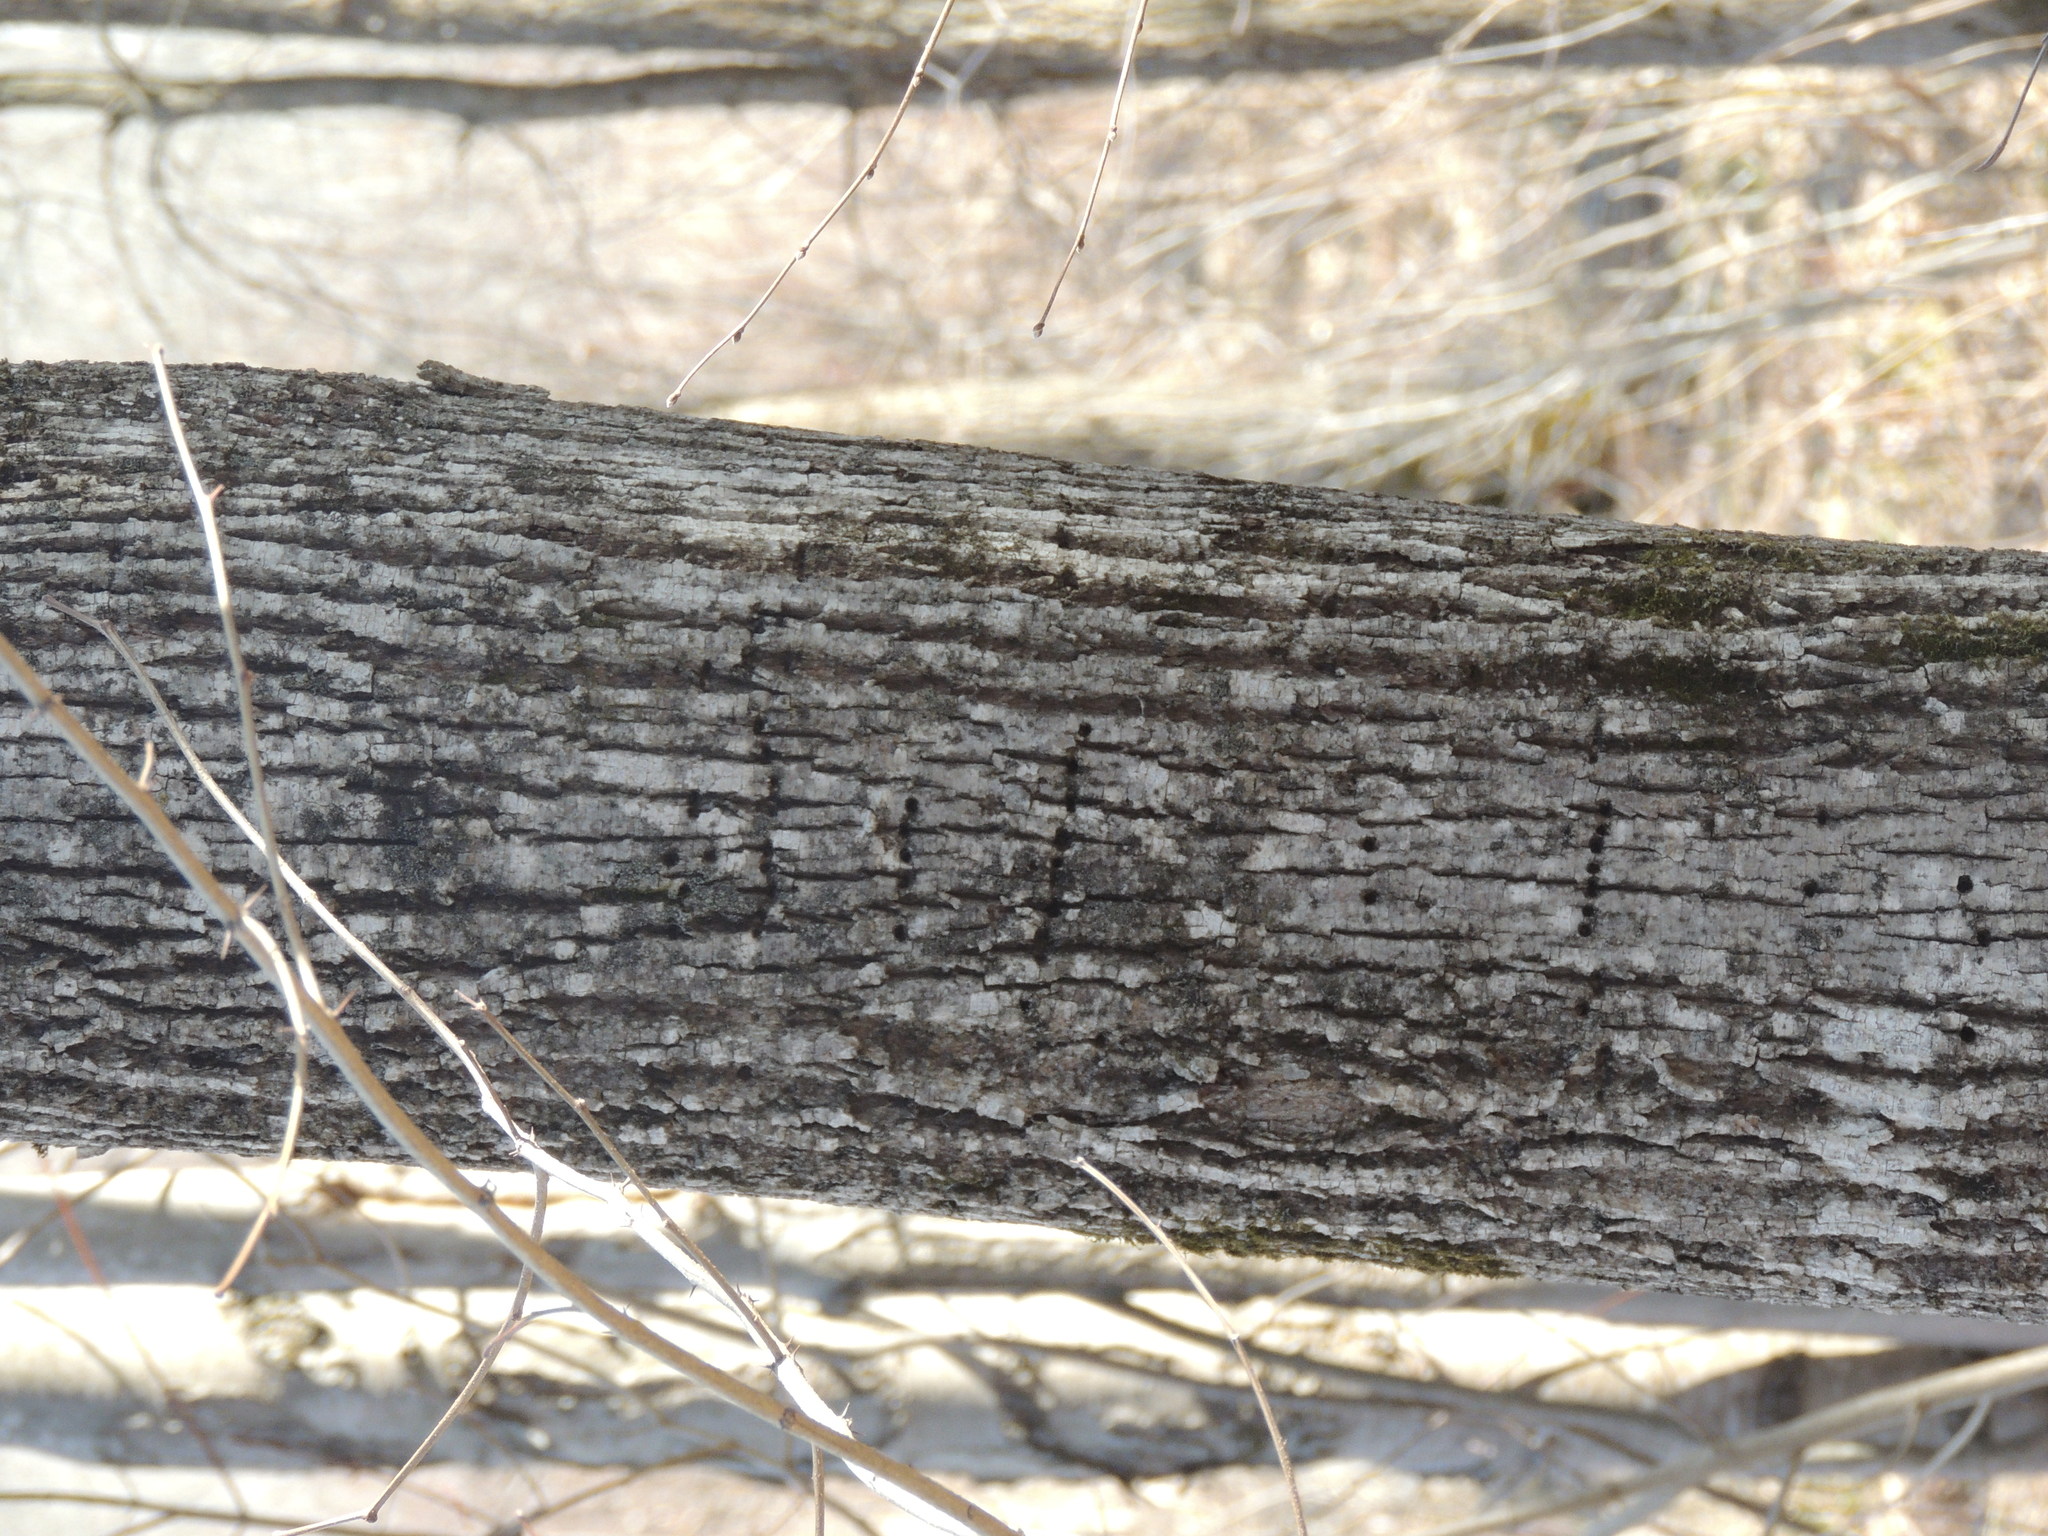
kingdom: Animalia
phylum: Chordata
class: Aves
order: Piciformes
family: Picidae
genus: Sphyrapicus
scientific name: Sphyrapicus varius
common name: Yellow-bellied sapsucker
